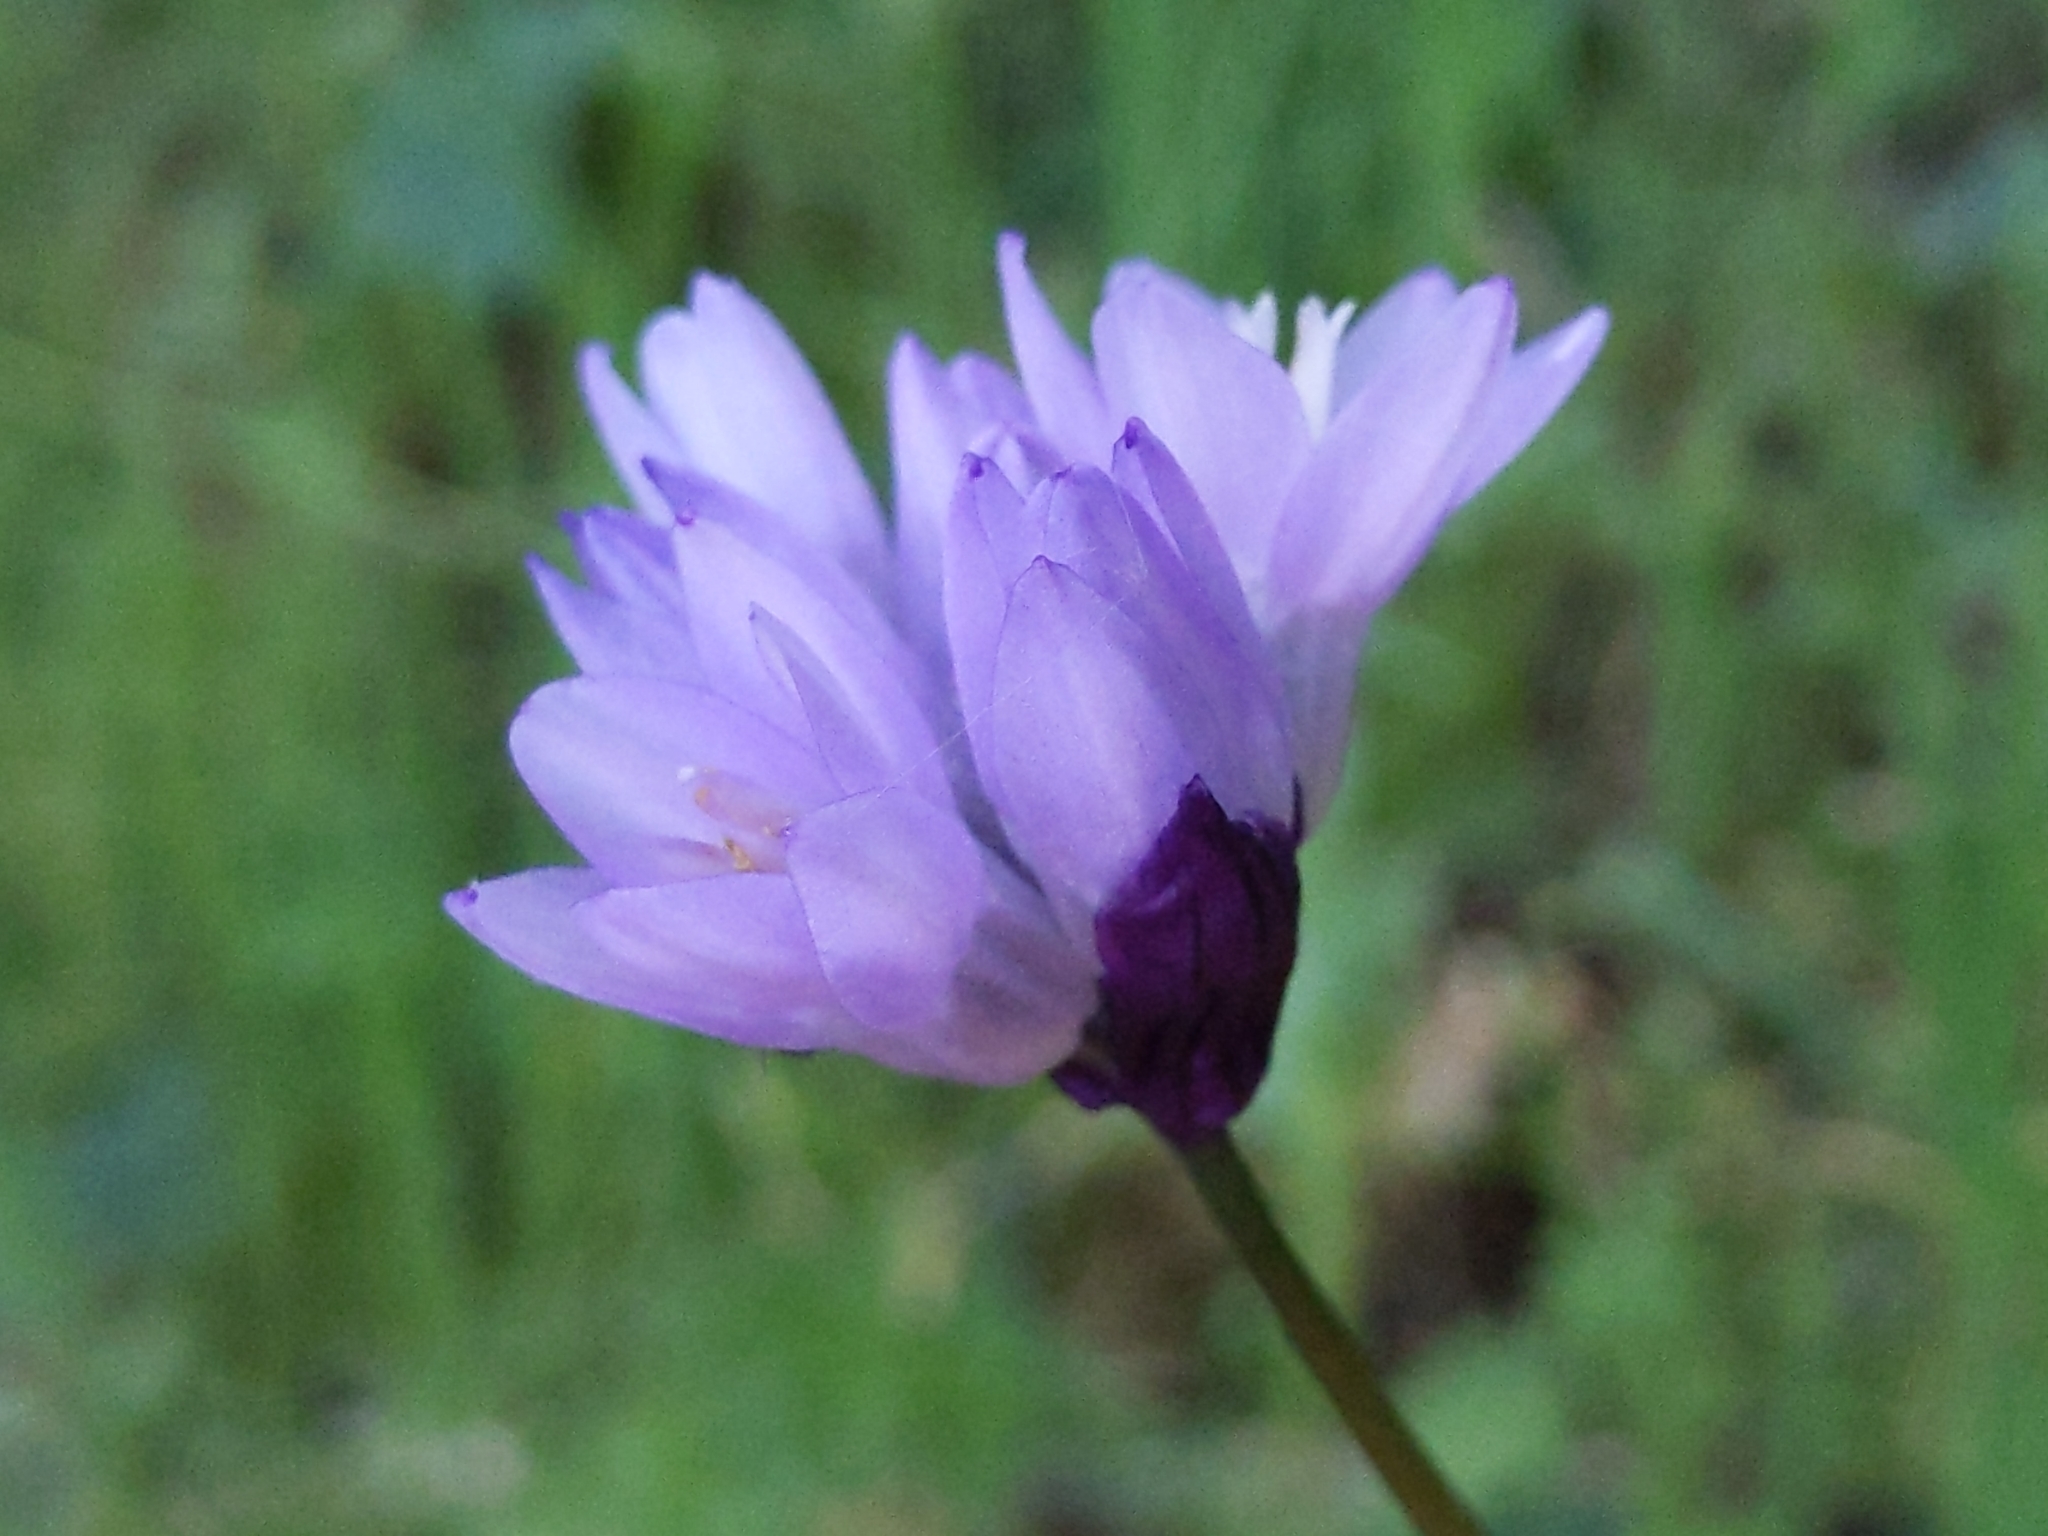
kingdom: Plantae
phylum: Tracheophyta
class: Liliopsida
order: Asparagales
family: Asparagaceae
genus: Dipterostemon
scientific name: Dipterostemon capitatus
